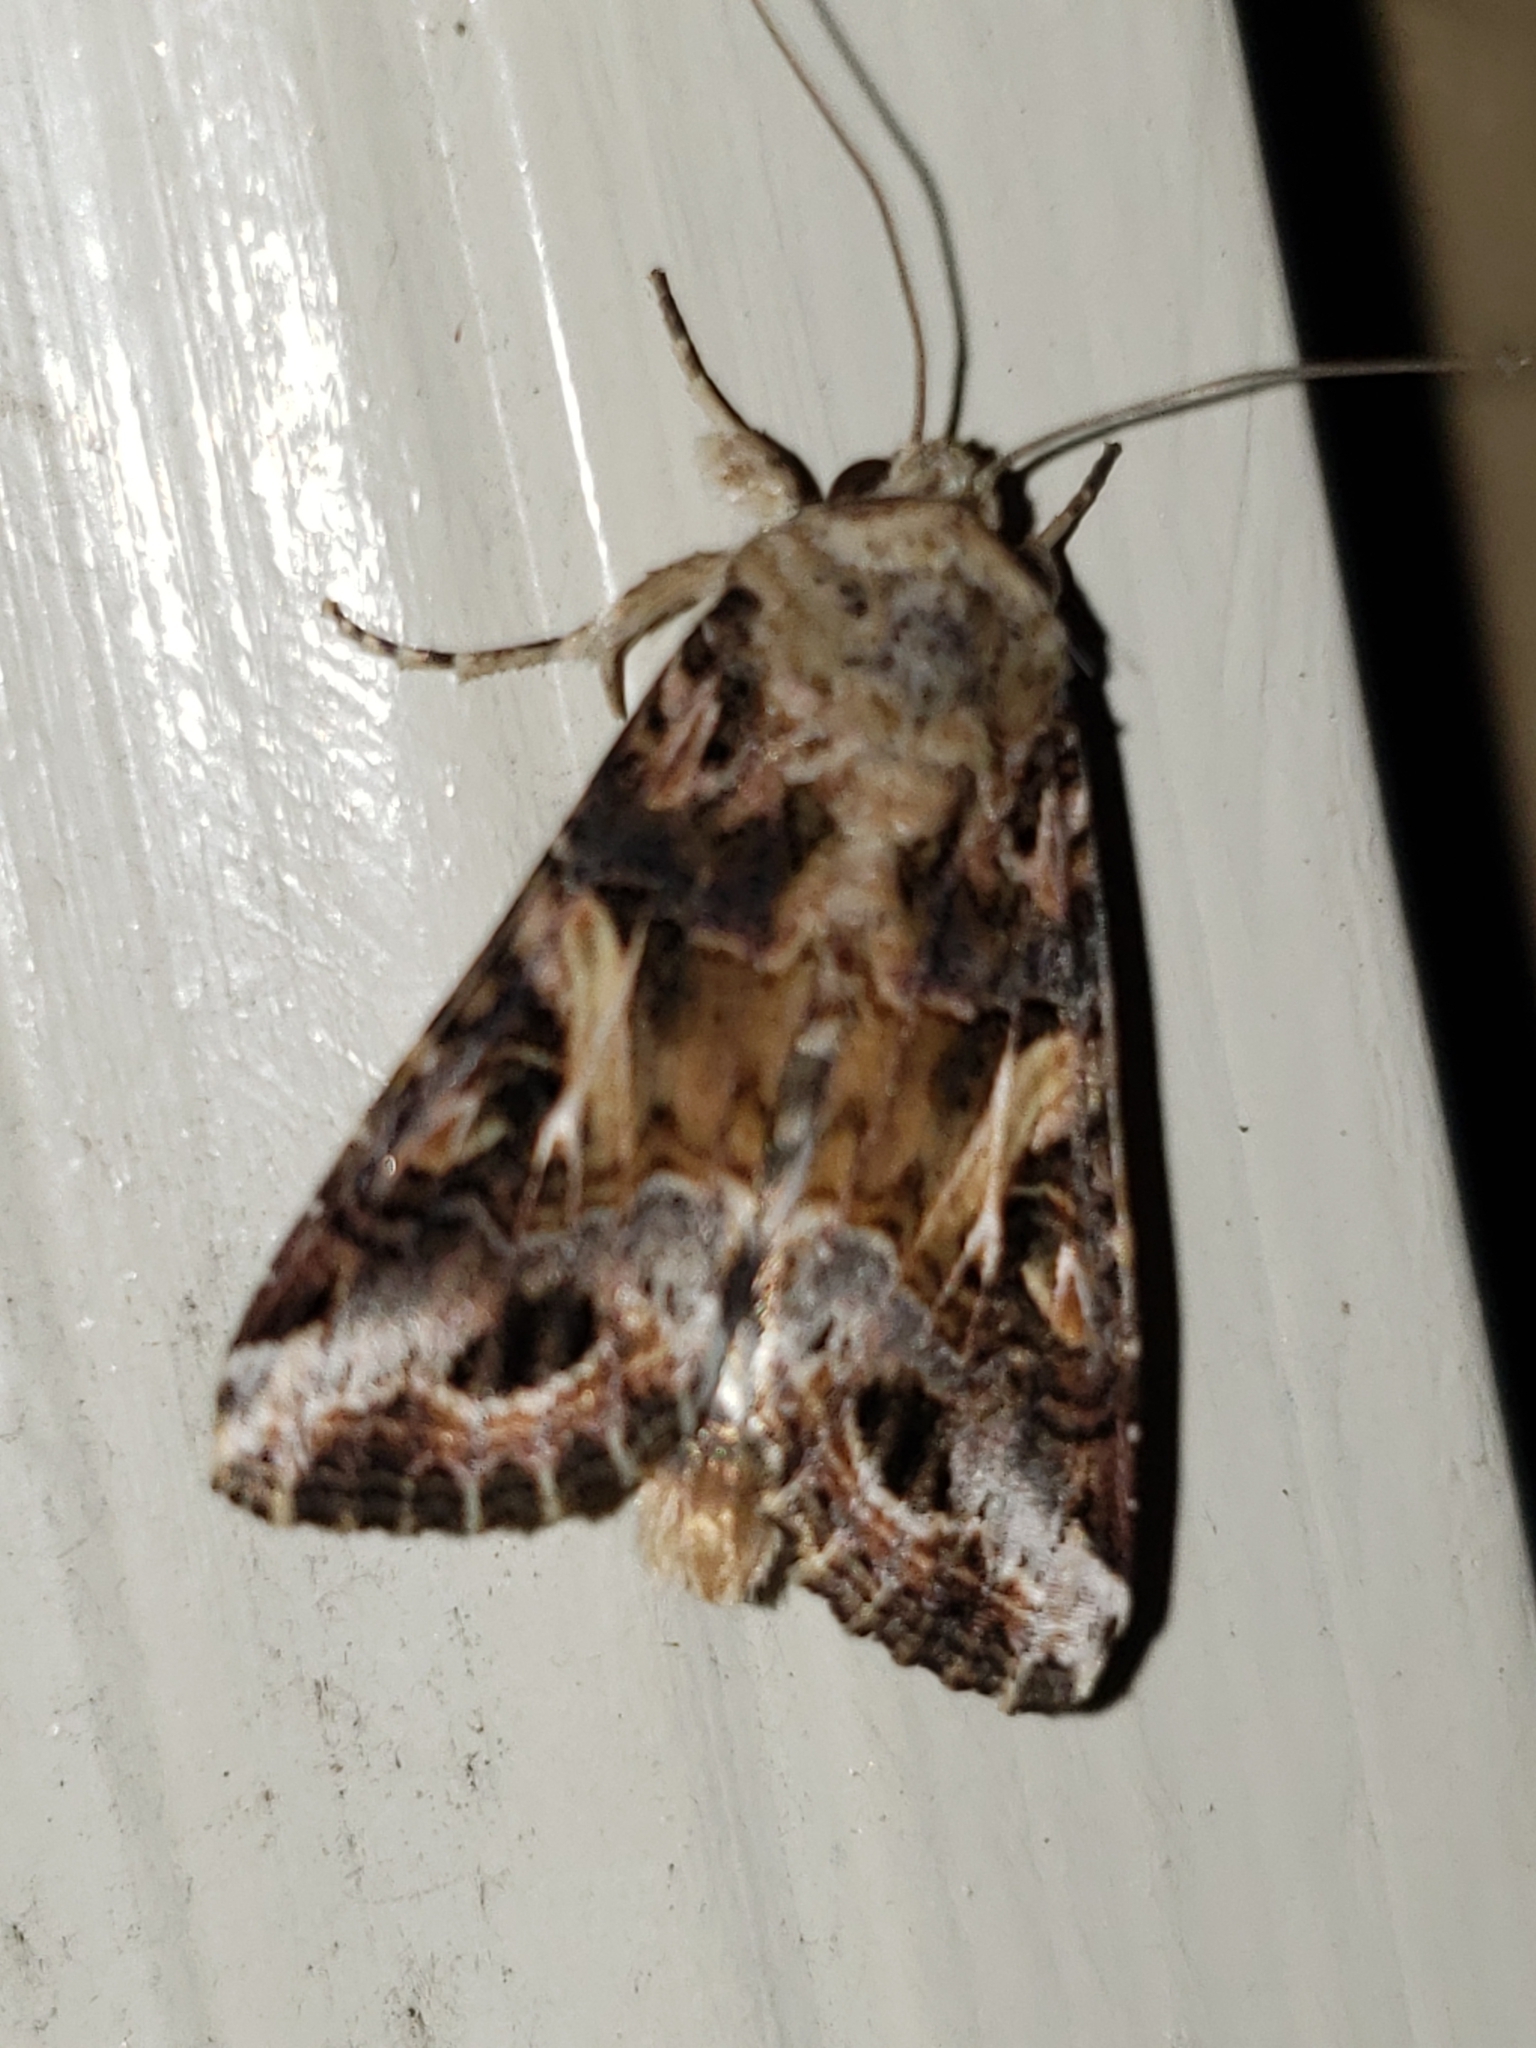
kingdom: Animalia
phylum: Arthropoda
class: Insecta
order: Lepidoptera
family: Noctuidae
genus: Spodoptera
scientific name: Spodoptera ornithogalli
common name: Yellow-striped armyworm
